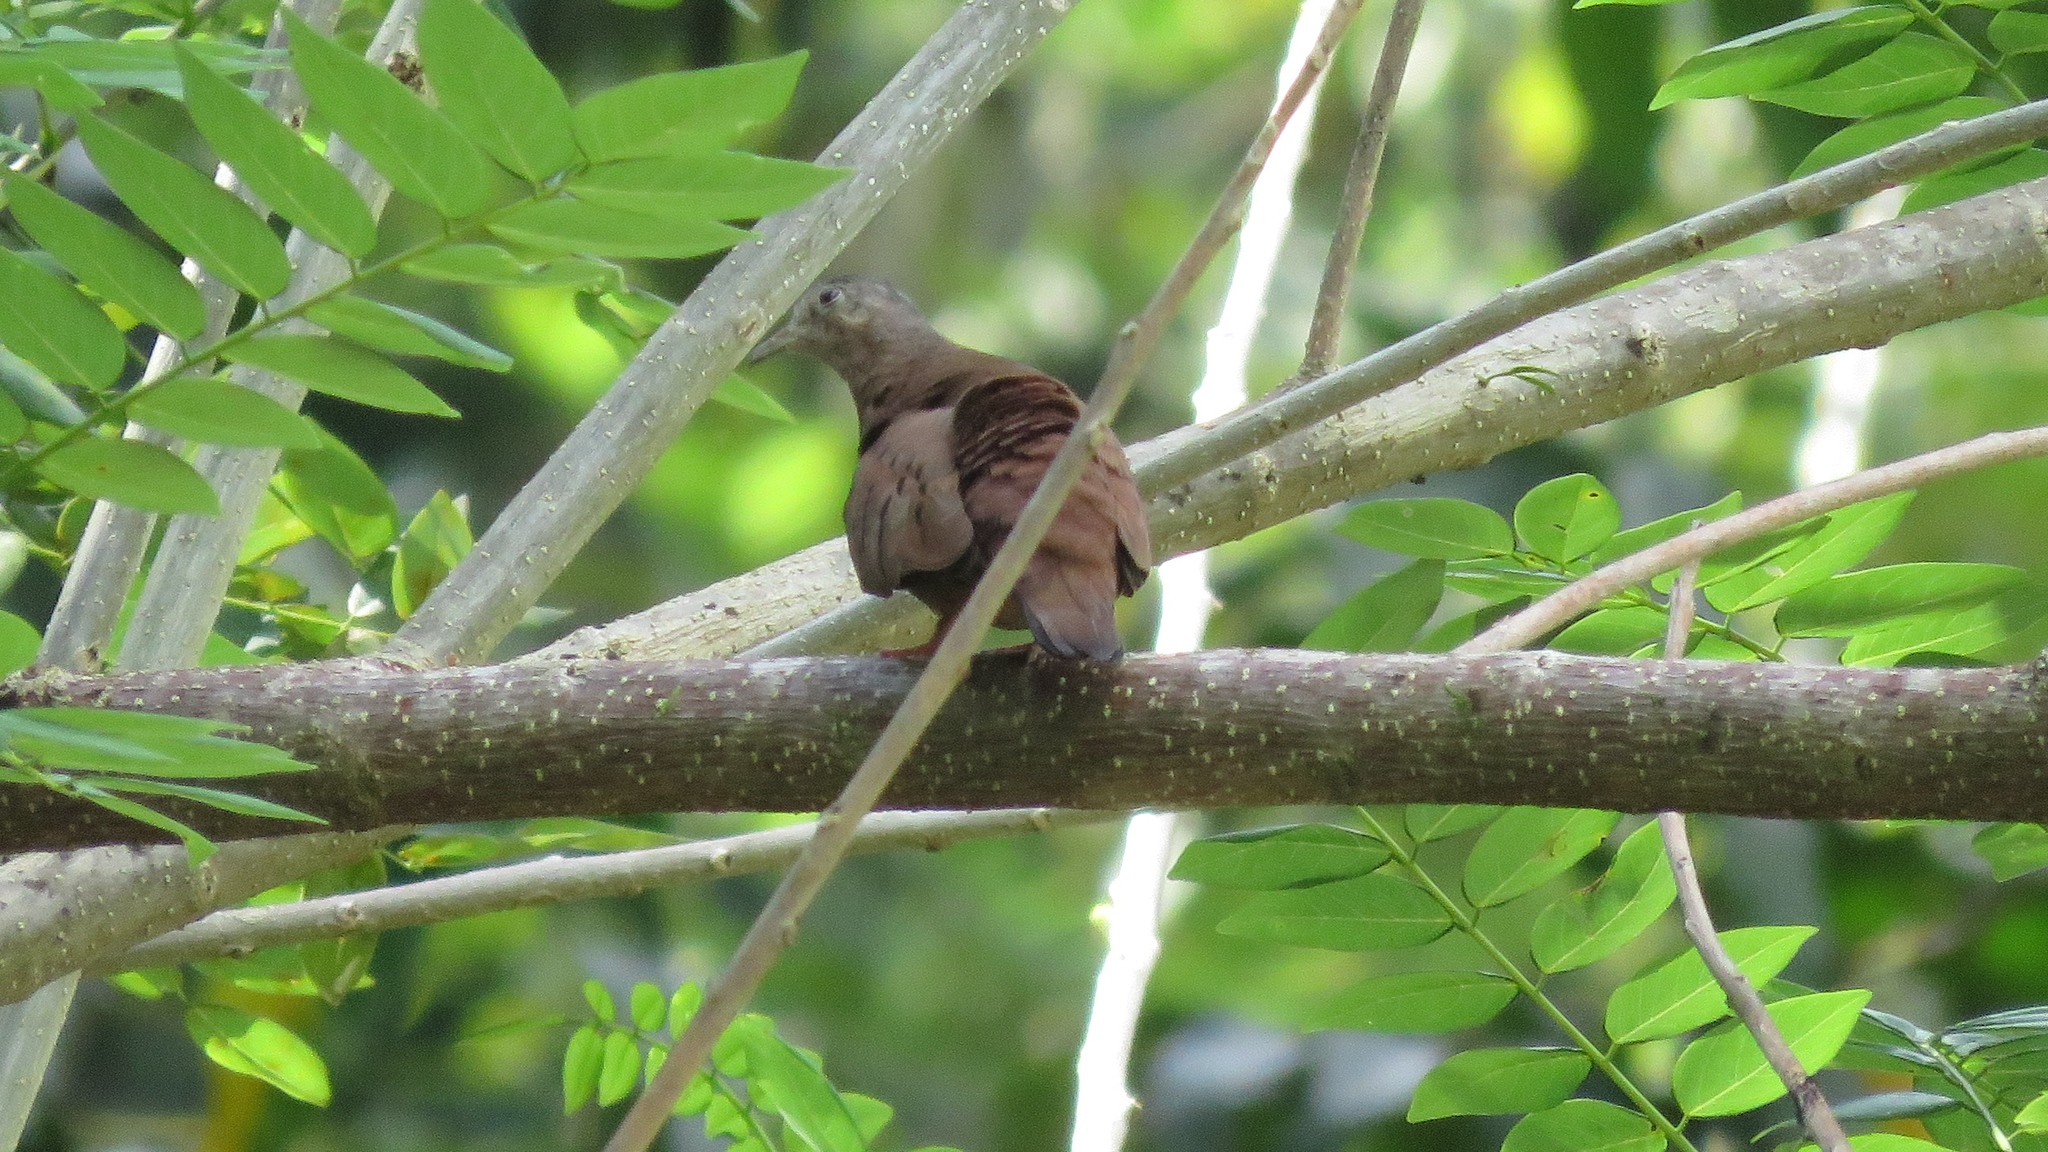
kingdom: Animalia
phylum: Chordata
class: Aves
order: Columbiformes
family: Columbidae
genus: Columbina
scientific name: Columbina talpacoti
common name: Ruddy ground dove
